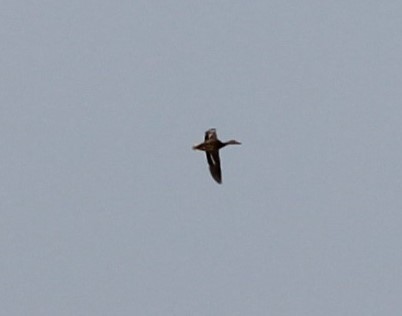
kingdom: Animalia
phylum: Chordata
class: Aves
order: Anseriformes
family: Anatidae
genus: Anas
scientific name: Anas platyrhynchos
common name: Mallard
